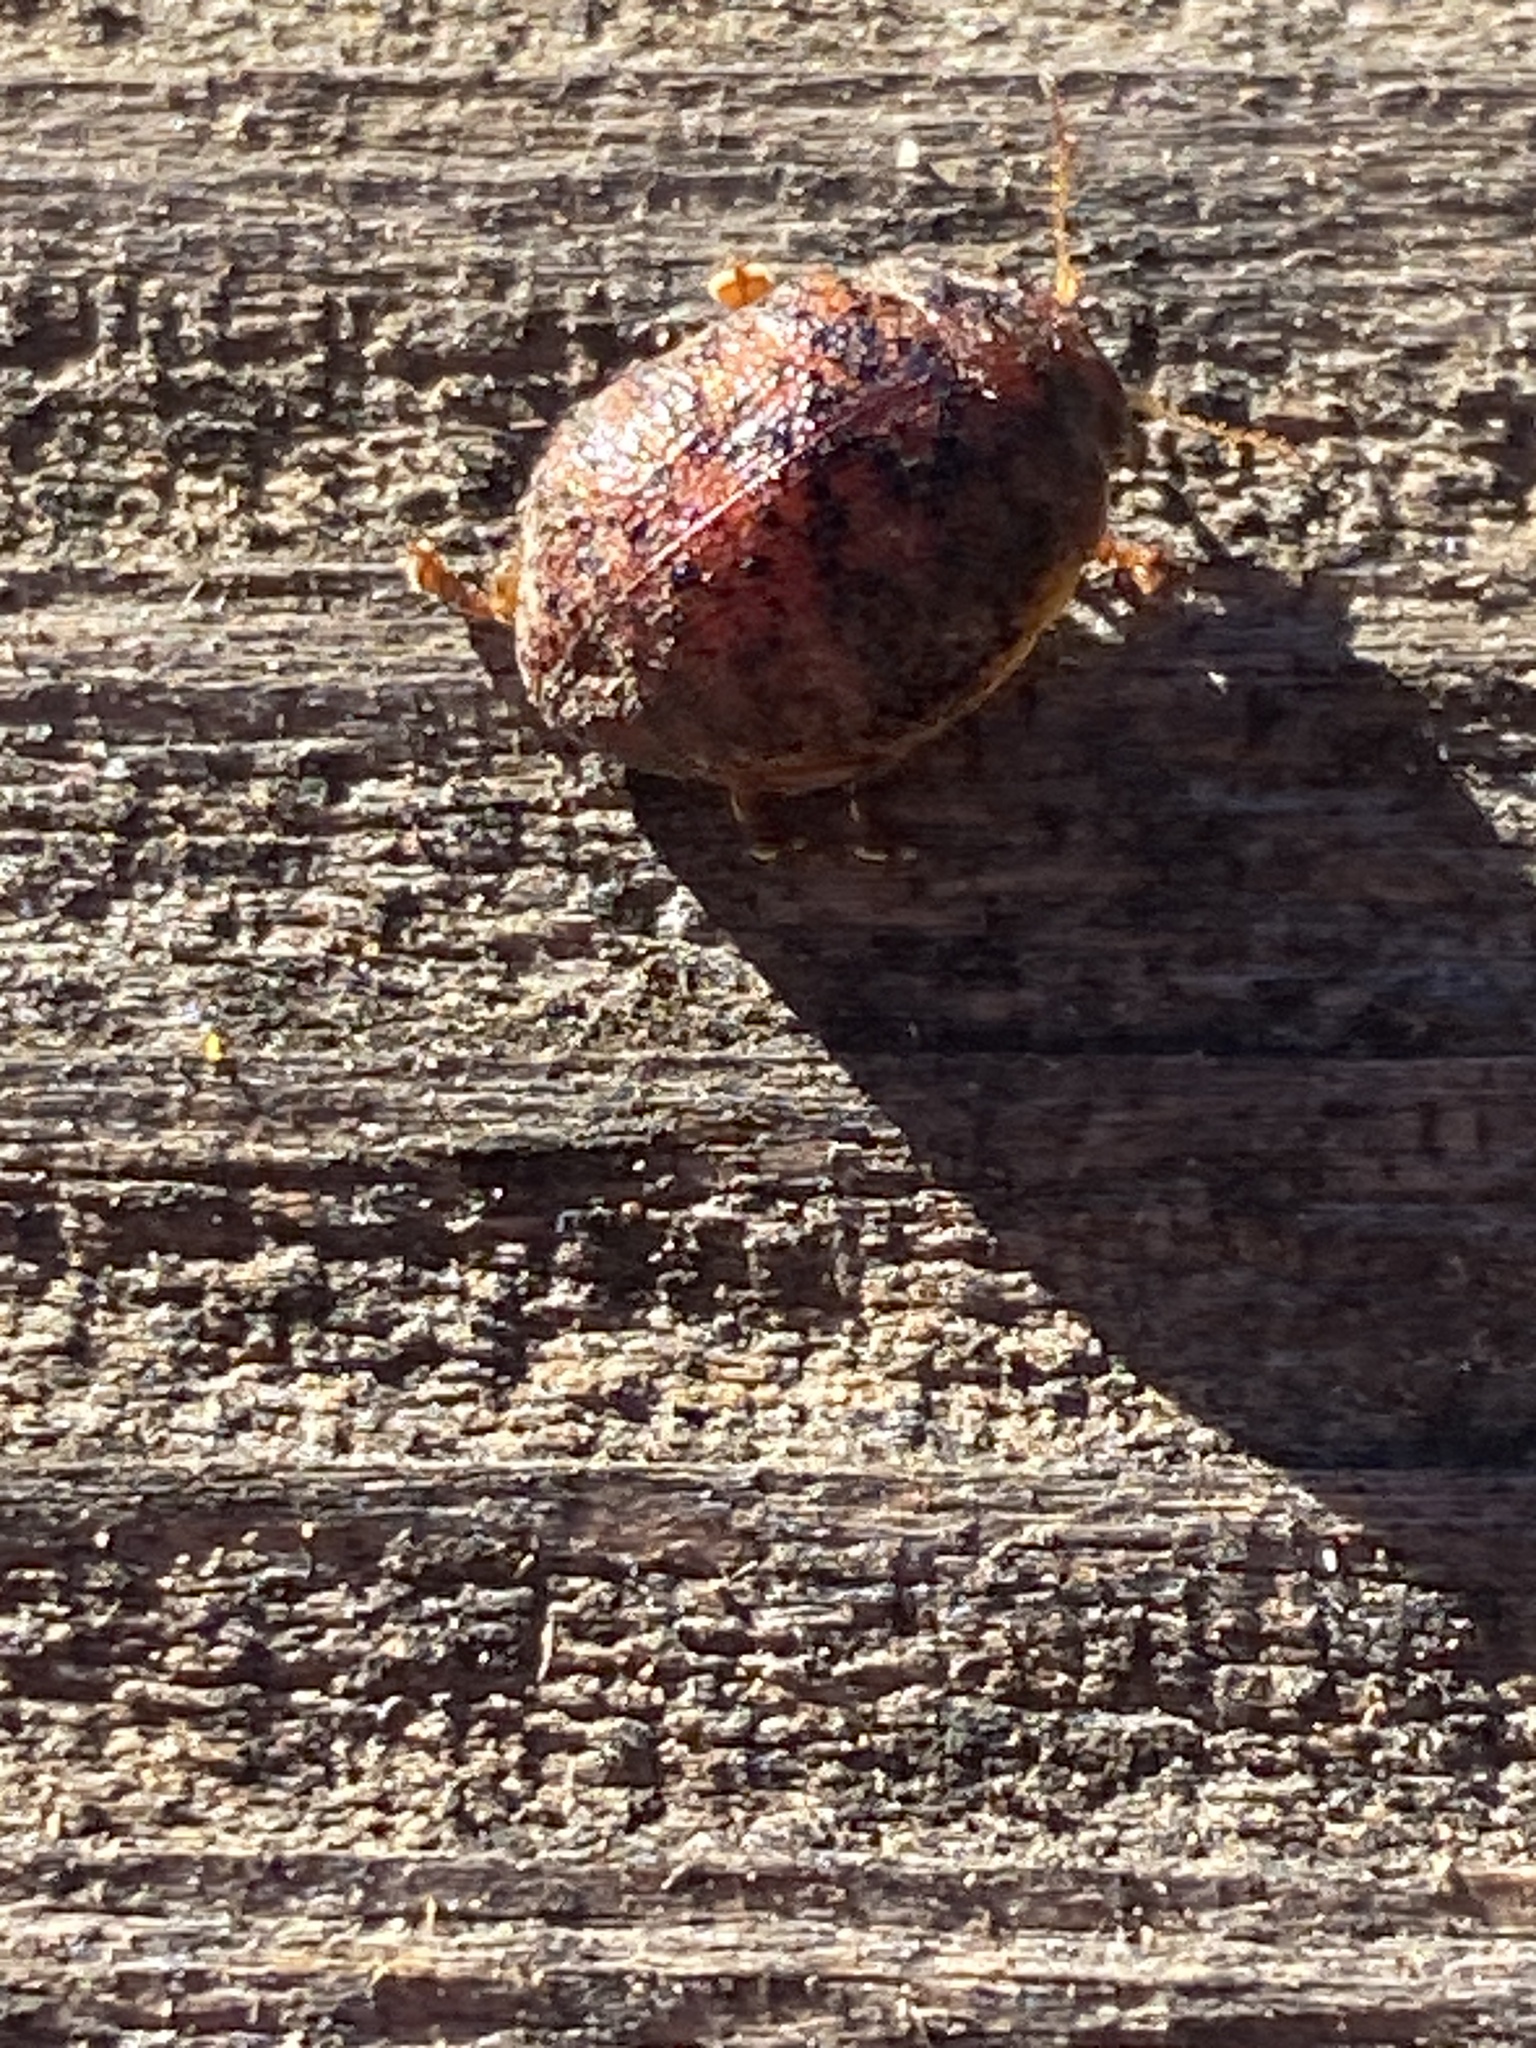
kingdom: Animalia
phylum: Arthropoda
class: Insecta
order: Coleoptera
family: Chrysomelidae
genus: Trachymela
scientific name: Trachymela sloanei
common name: Australian tortoise beetle
